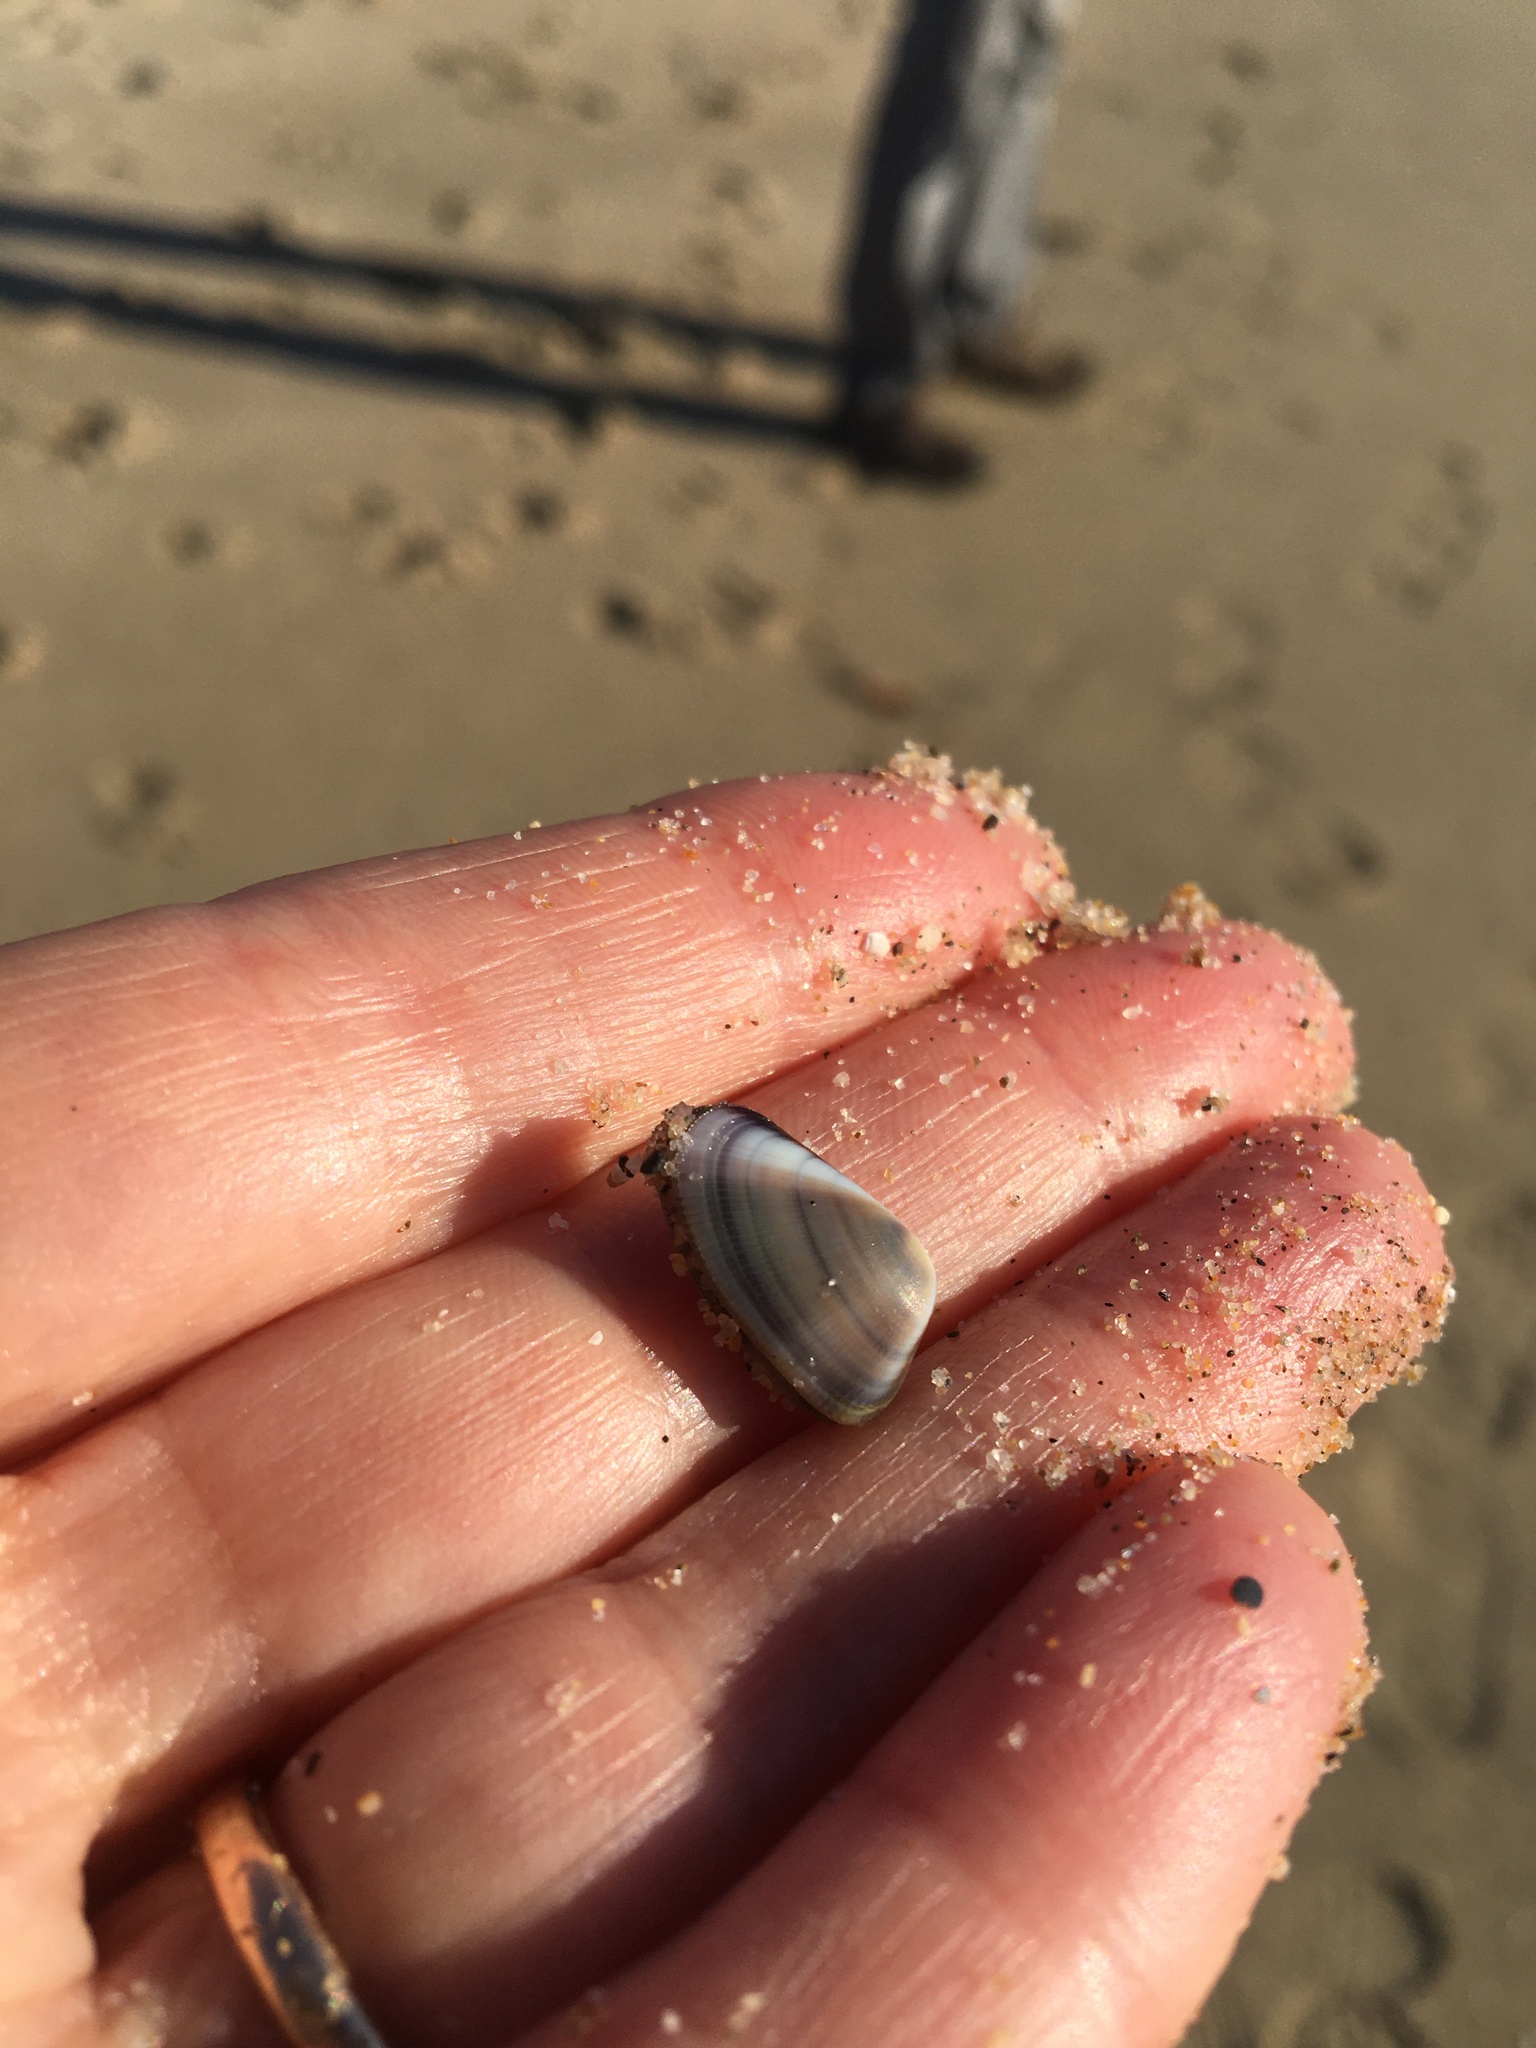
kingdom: Animalia
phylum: Mollusca
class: Bivalvia
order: Cardiida
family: Donacidae
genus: Donax
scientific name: Donax gouldii
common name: Gould beanclam
